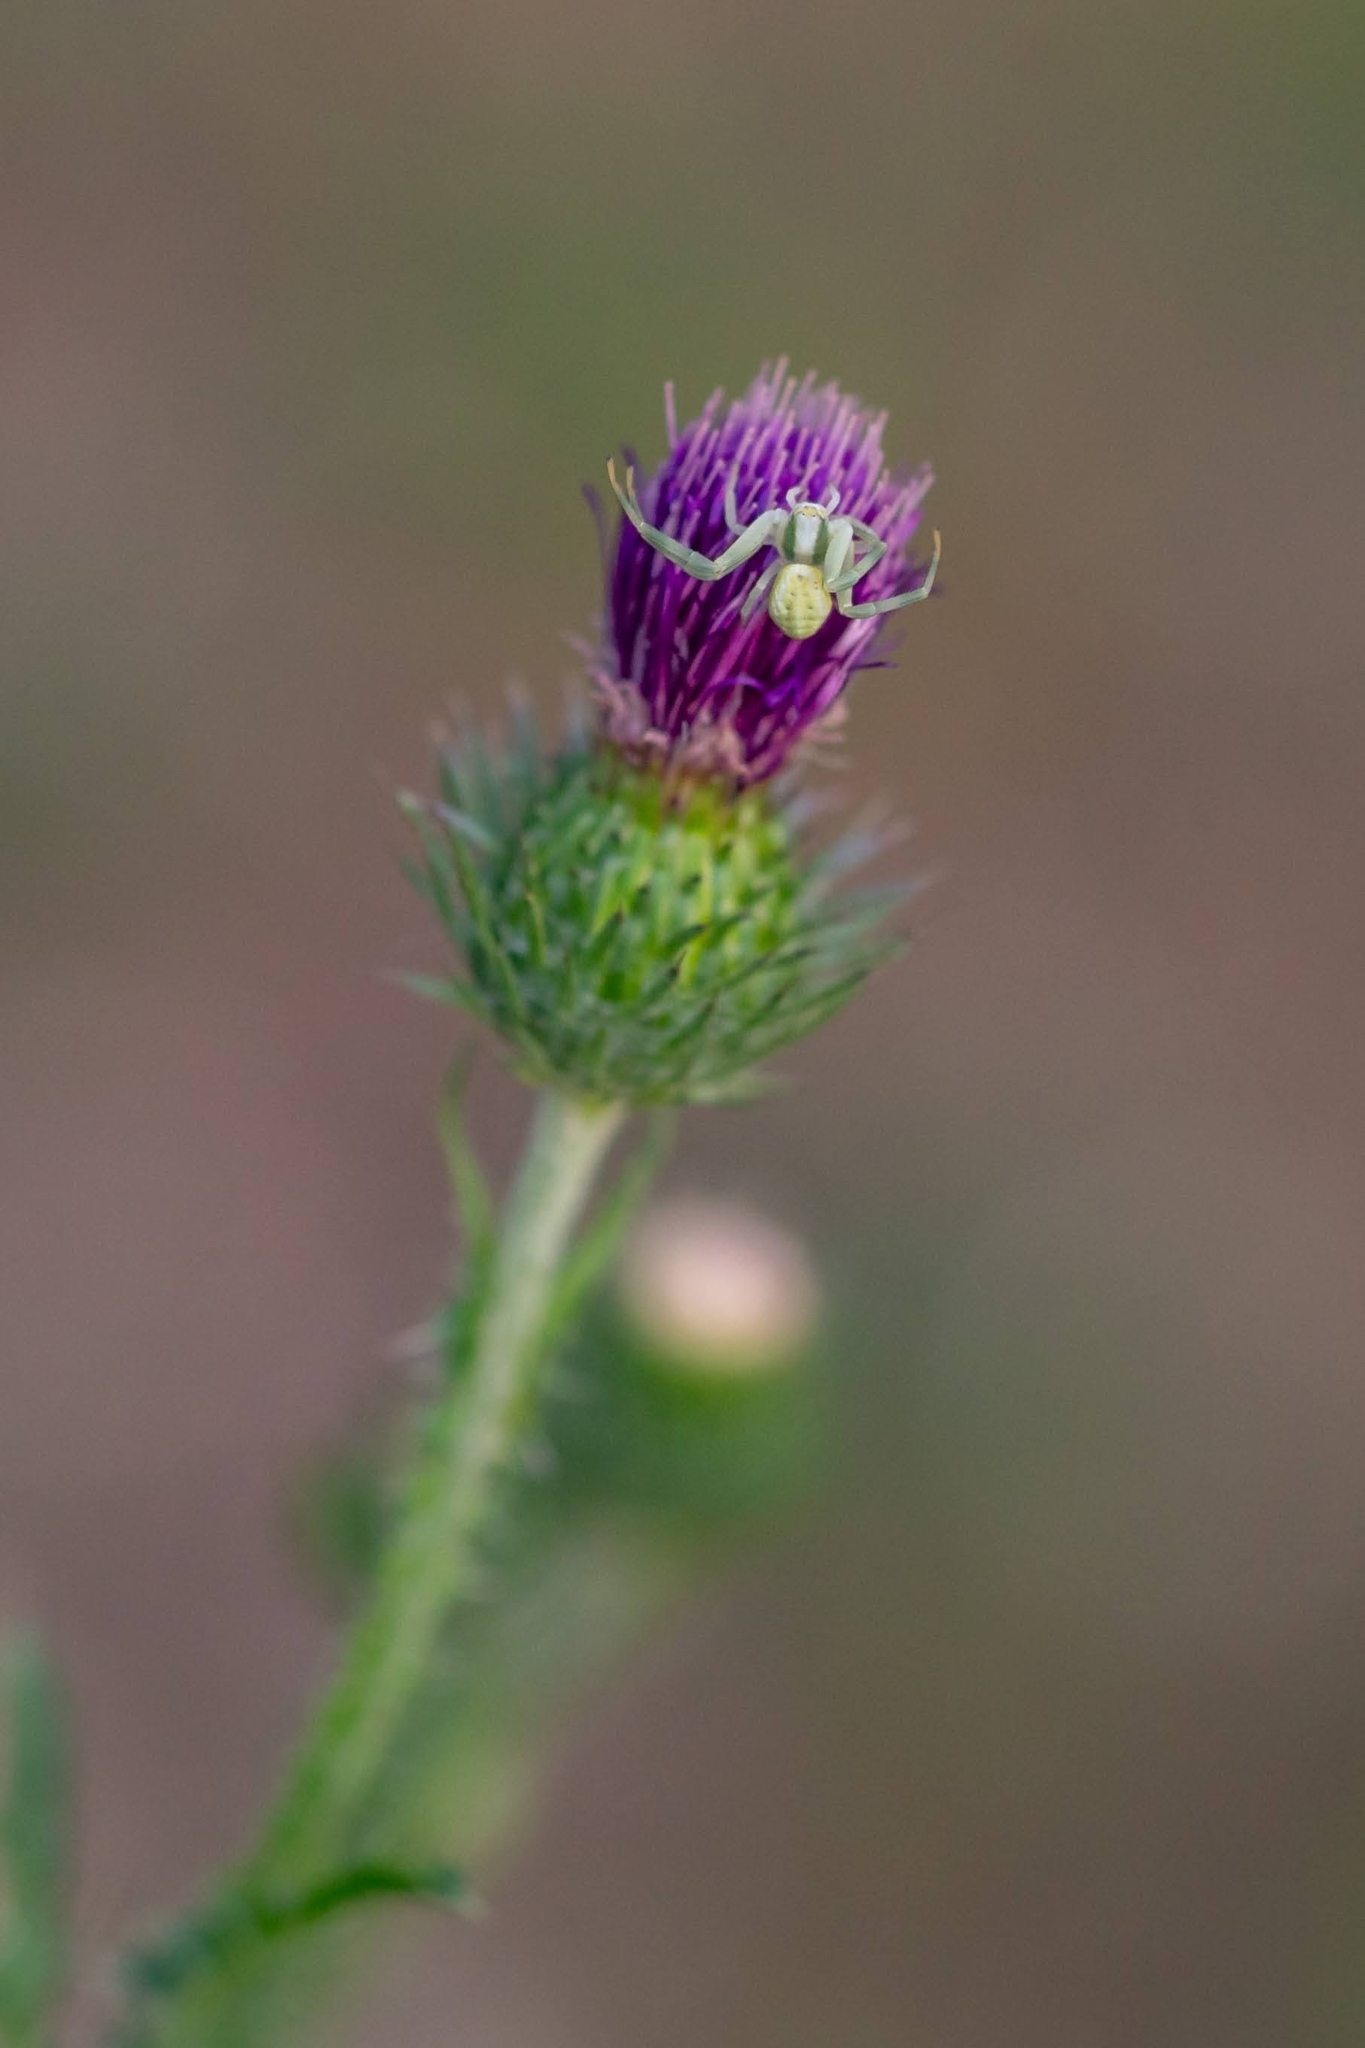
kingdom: Animalia
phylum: Arthropoda
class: Arachnida
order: Araneae
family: Thomisidae
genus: Misumena
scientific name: Misumena vatia
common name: Goldenrod crab spider
